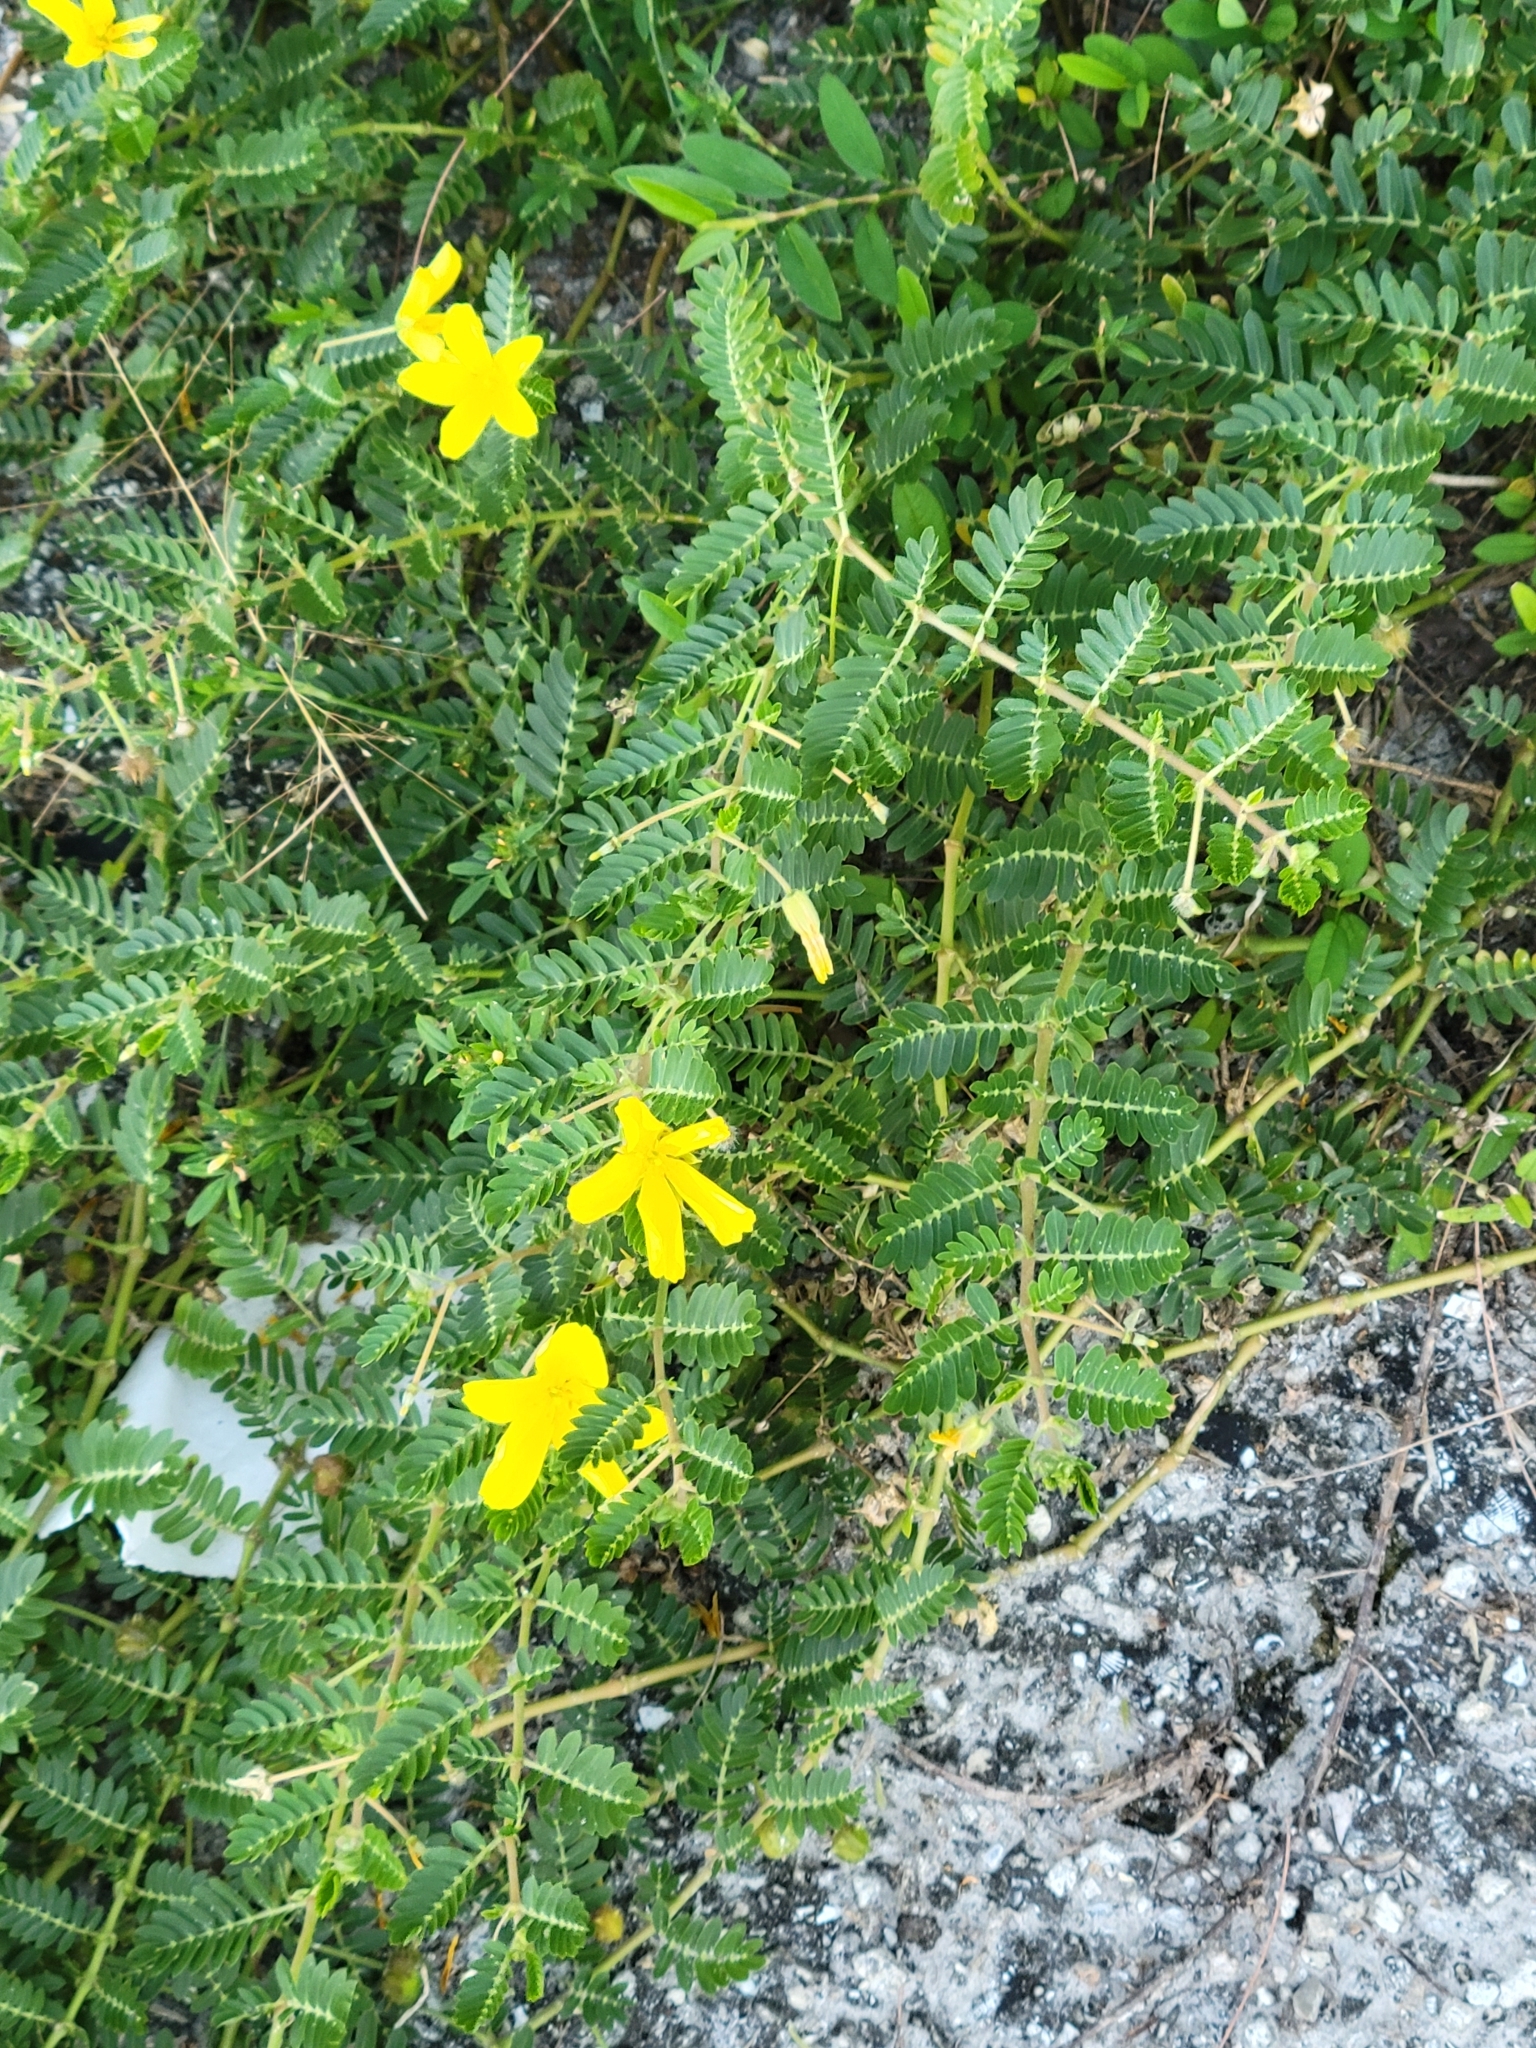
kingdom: Plantae
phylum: Tracheophyta
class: Magnoliopsida
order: Zygophyllales
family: Zygophyllaceae
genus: Tribulus
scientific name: Tribulus cistoides
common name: Jamaican feverplant
